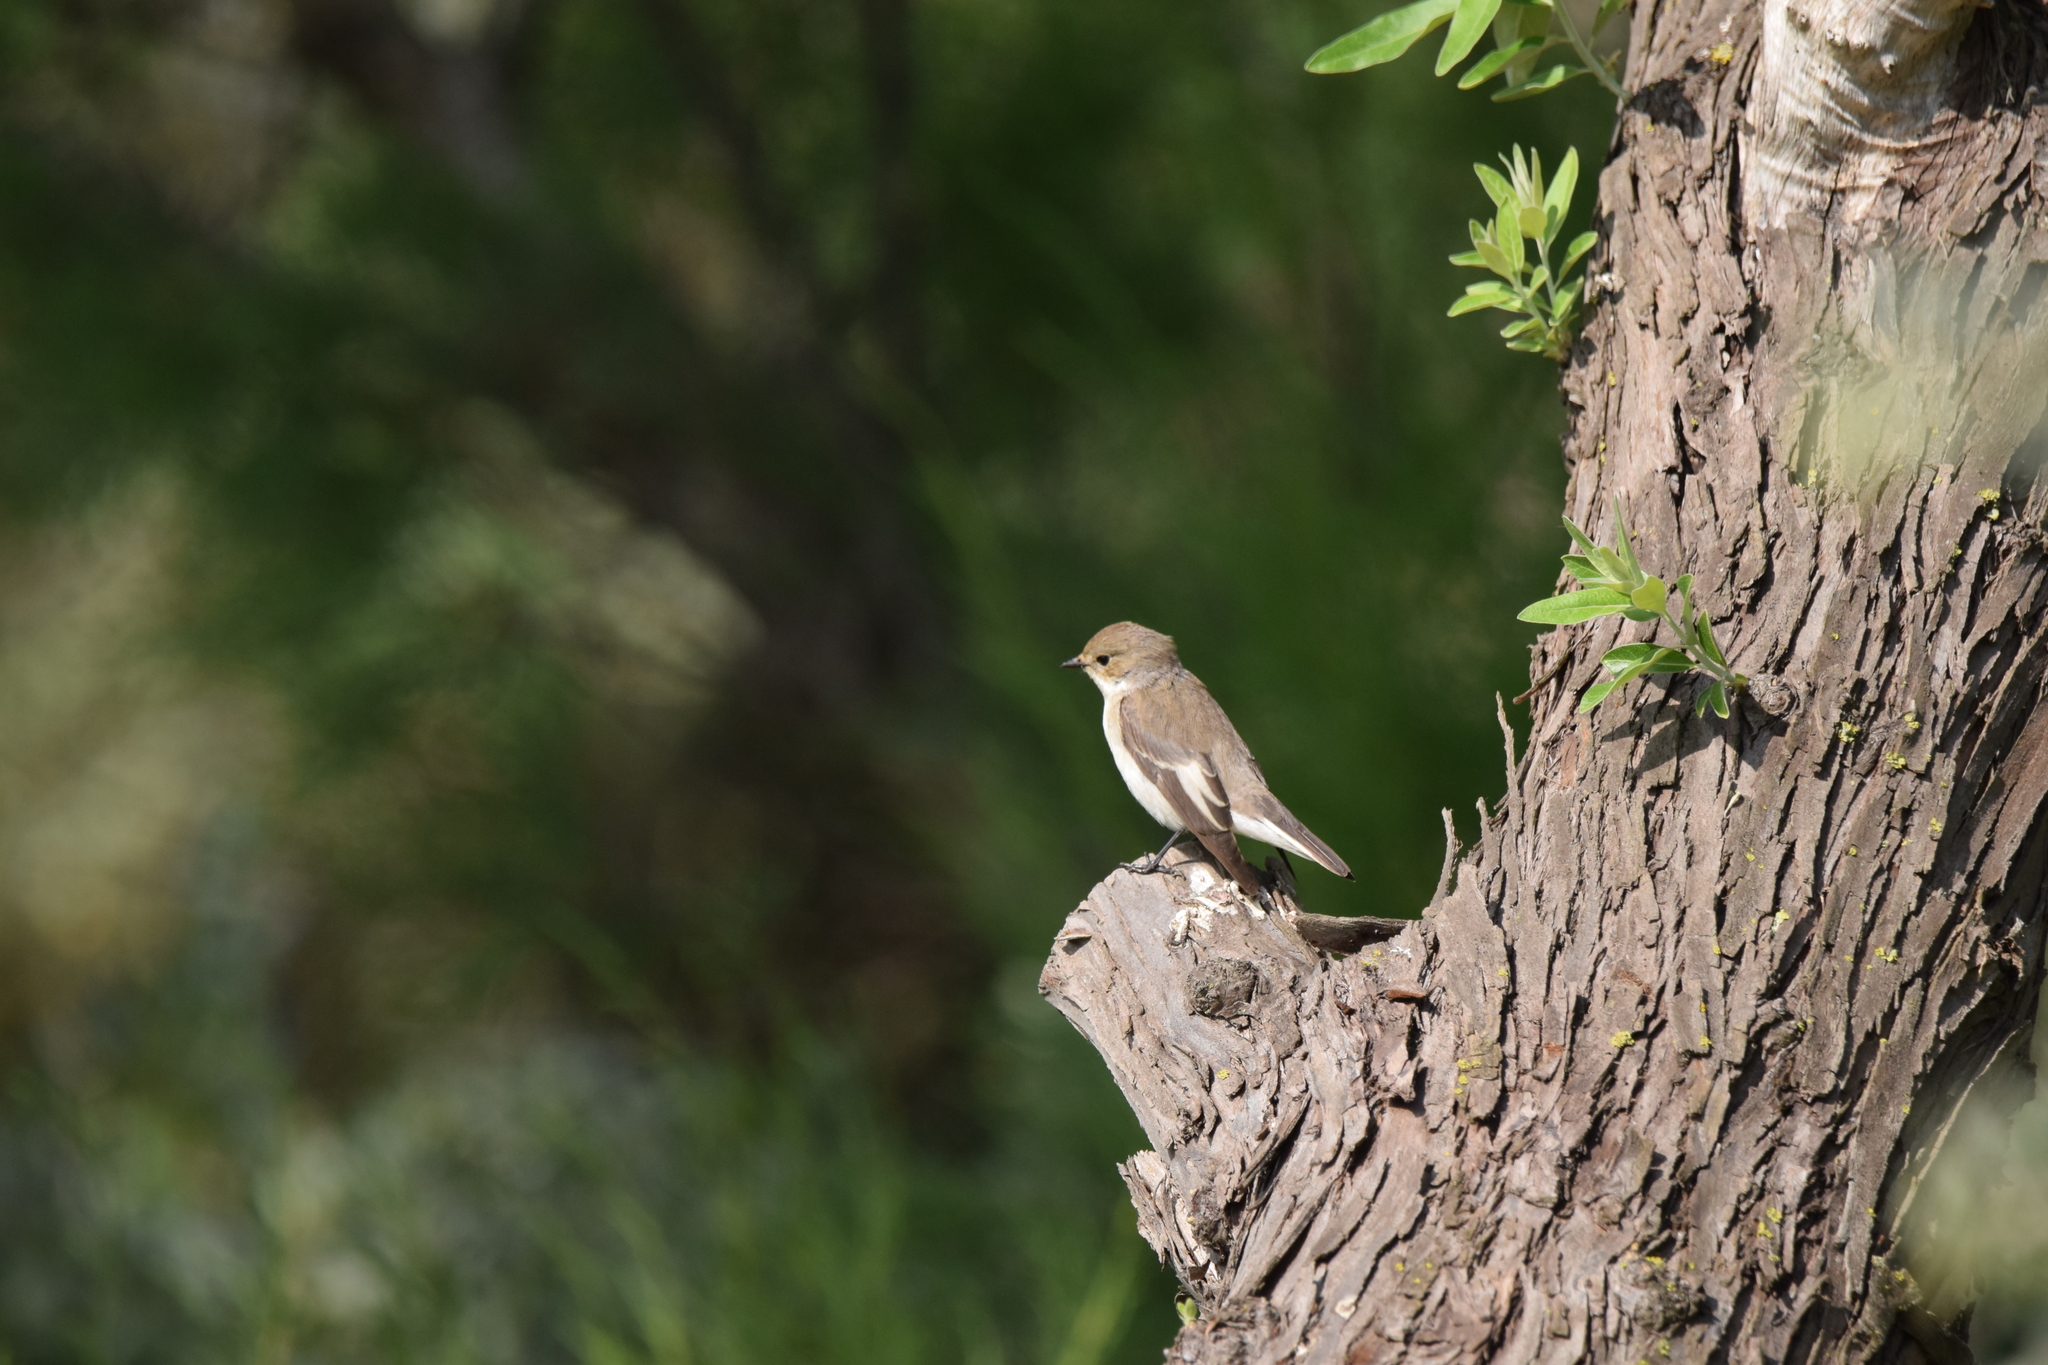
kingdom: Animalia
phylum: Chordata
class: Aves
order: Passeriformes
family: Muscicapidae
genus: Ficedula
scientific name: Ficedula hypoleuca
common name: European pied flycatcher
